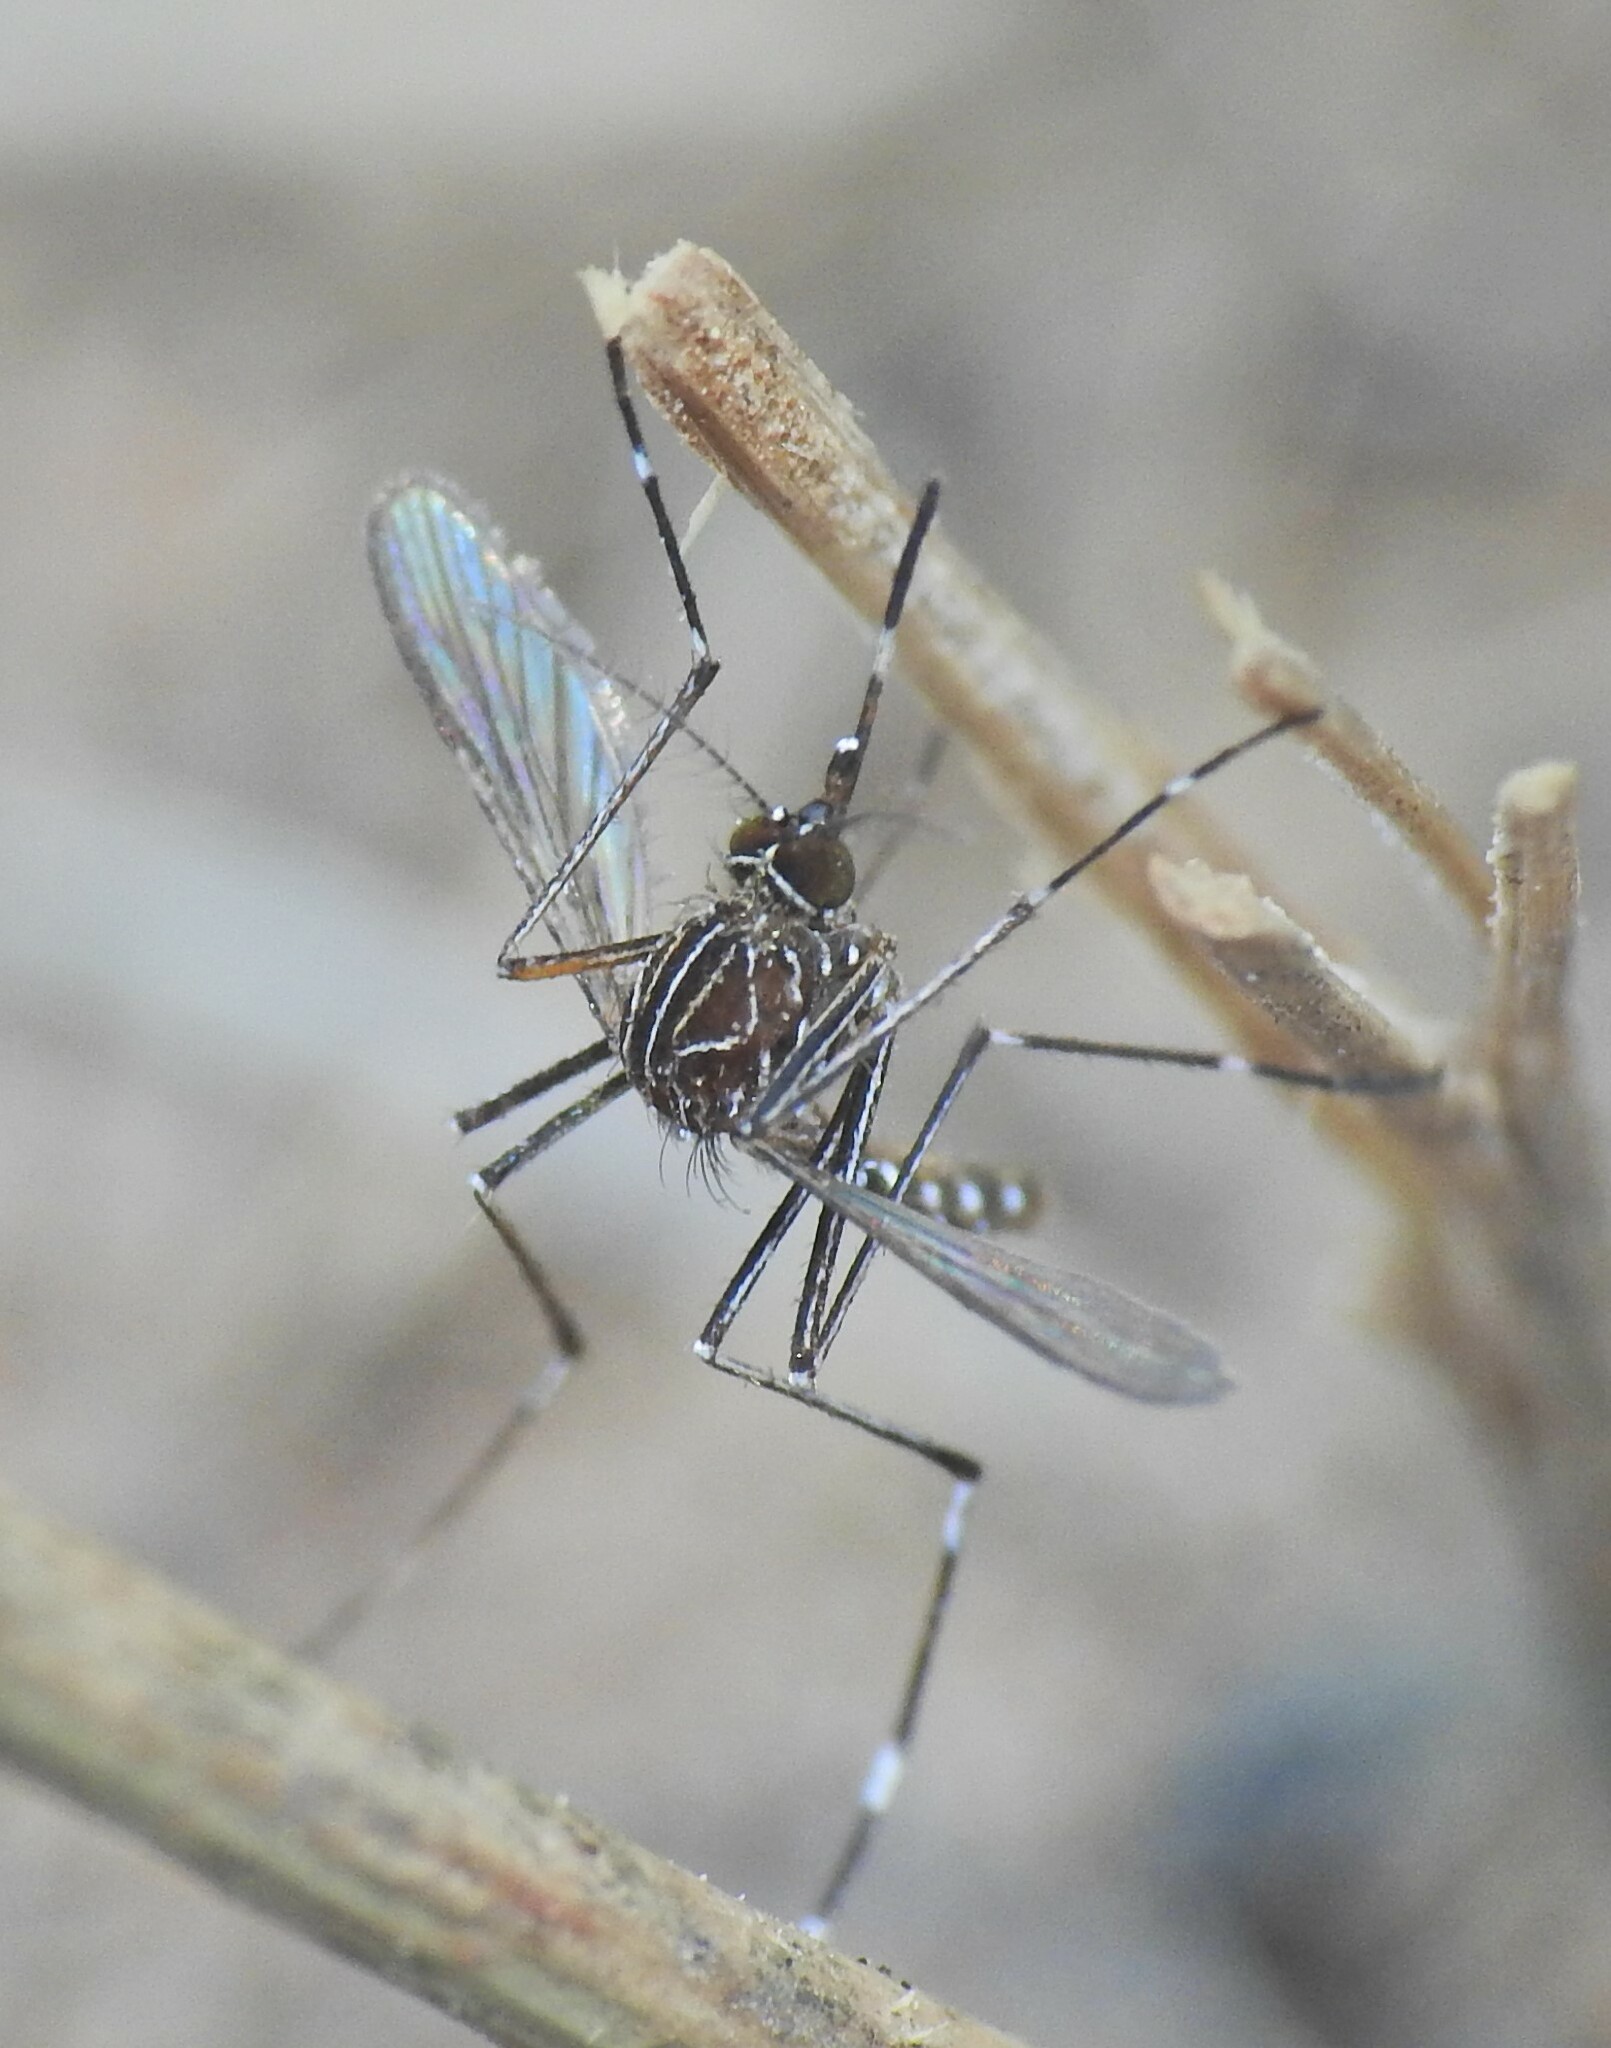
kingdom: Animalia
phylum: Arthropoda
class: Insecta
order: Diptera
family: Culicidae
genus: Aedes
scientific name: Aedes notoscriptus
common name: Australian backyard mosquito
